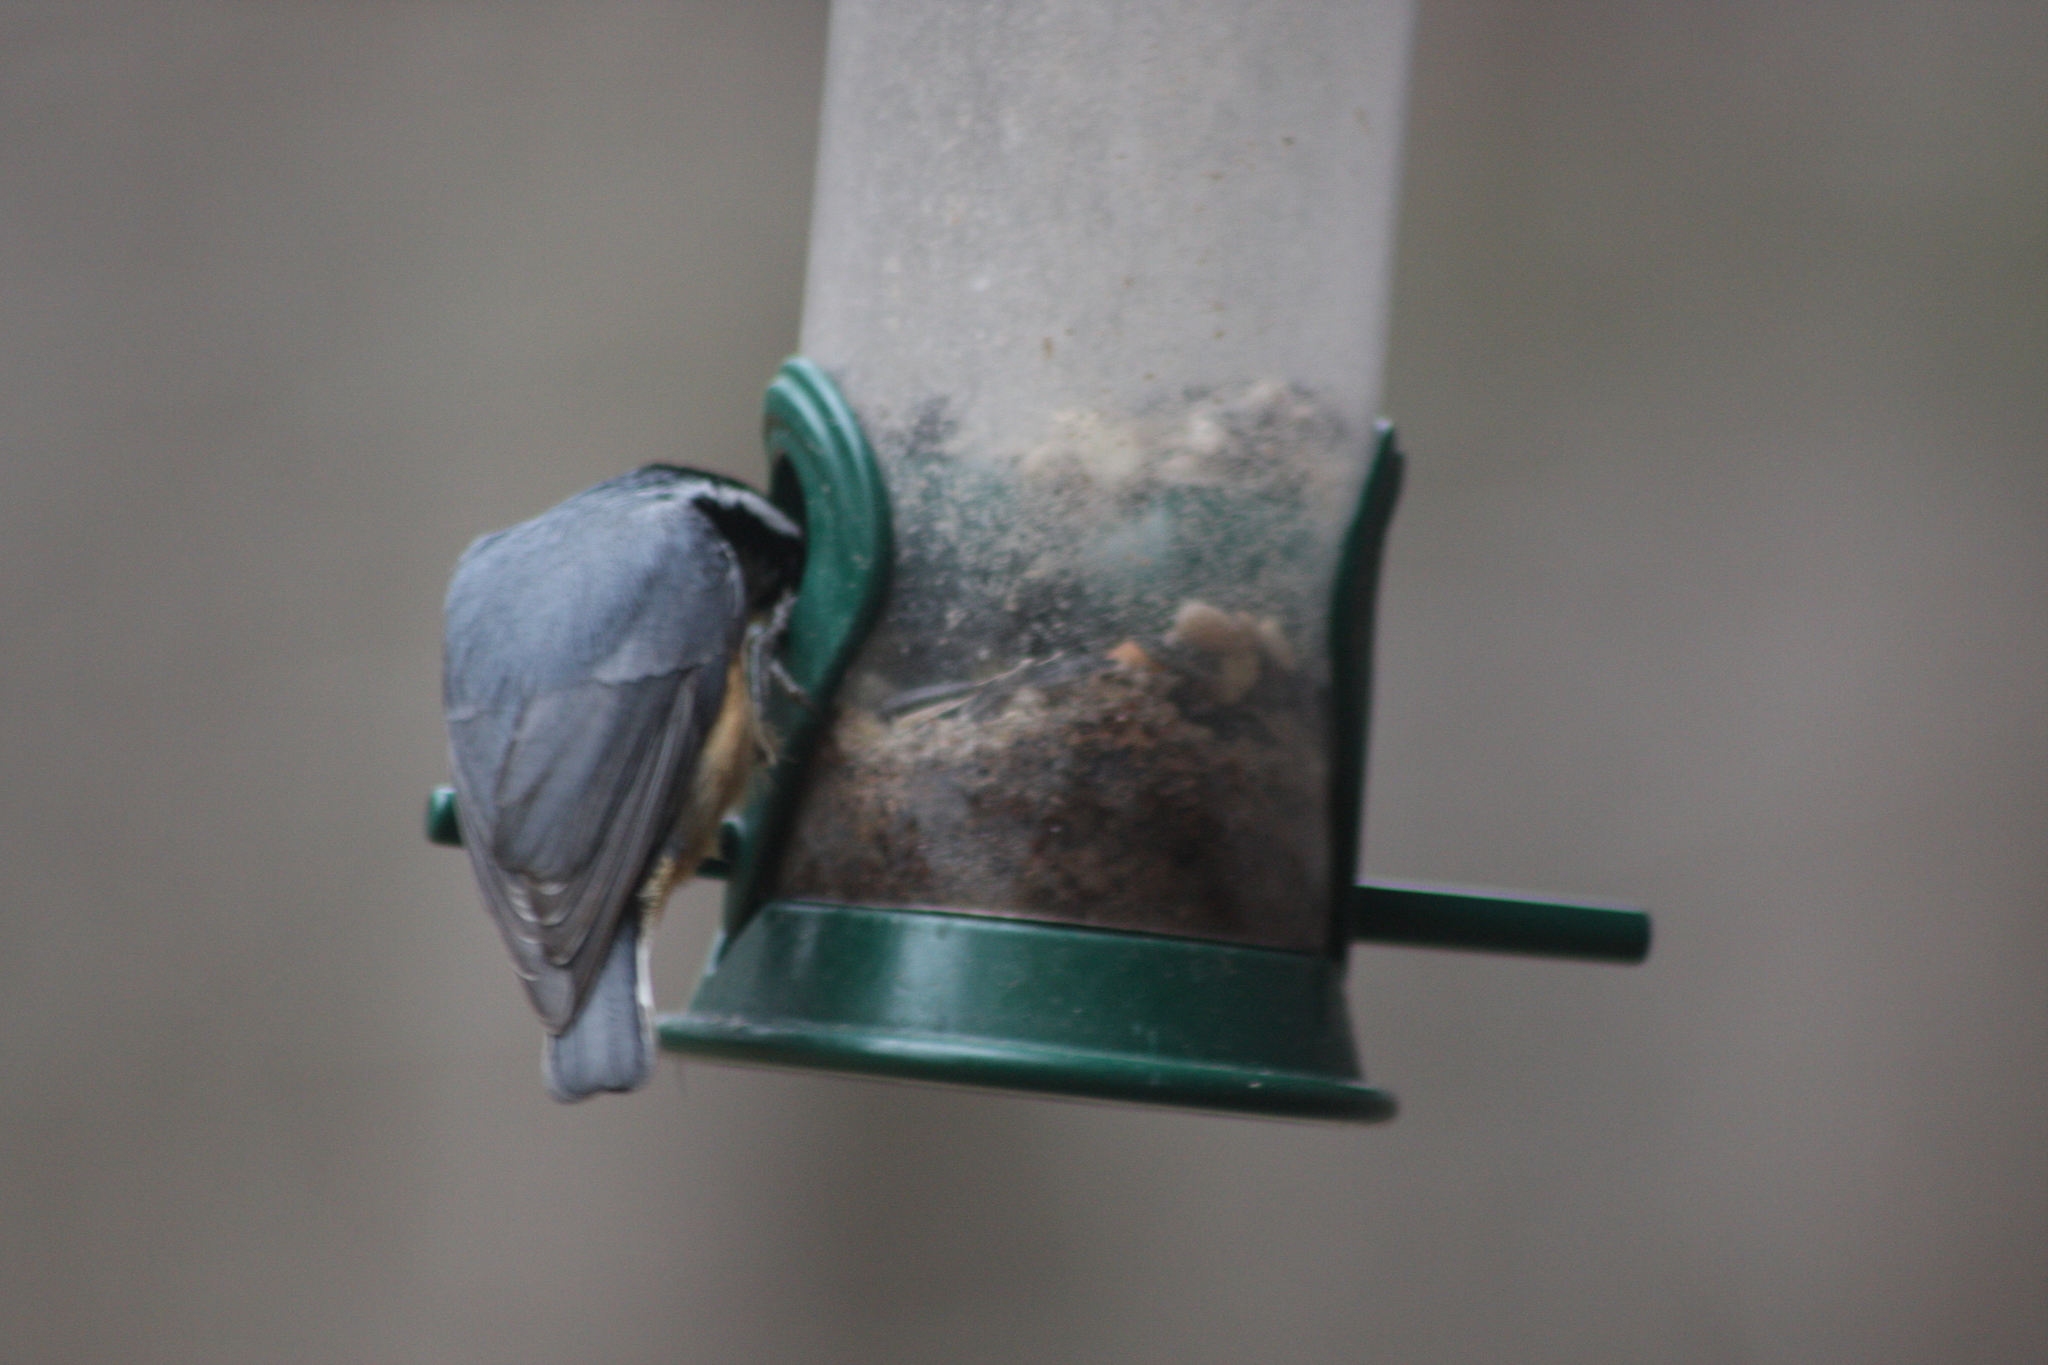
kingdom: Animalia
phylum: Chordata
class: Aves
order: Passeriformes
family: Sittidae
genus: Sitta
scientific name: Sitta canadensis
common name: Red-breasted nuthatch
